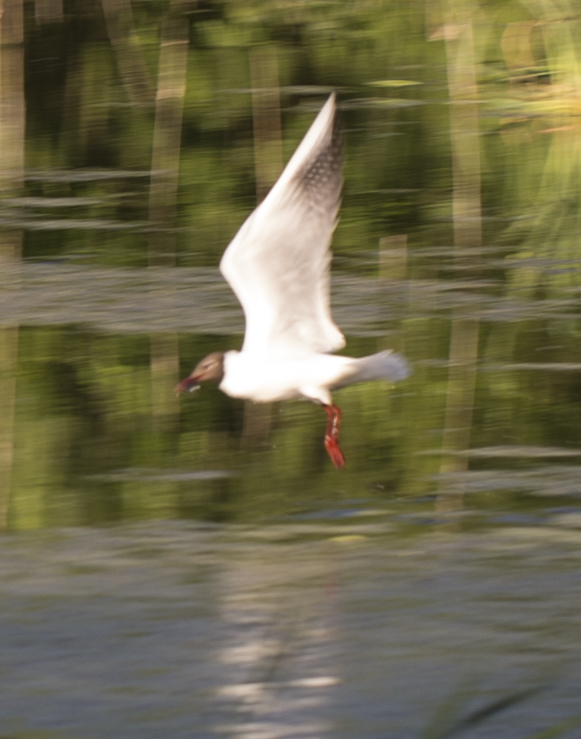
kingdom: Animalia
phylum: Chordata
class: Aves
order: Charadriiformes
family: Laridae
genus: Chroicocephalus
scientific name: Chroicocephalus ridibundus
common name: Black-headed gull
